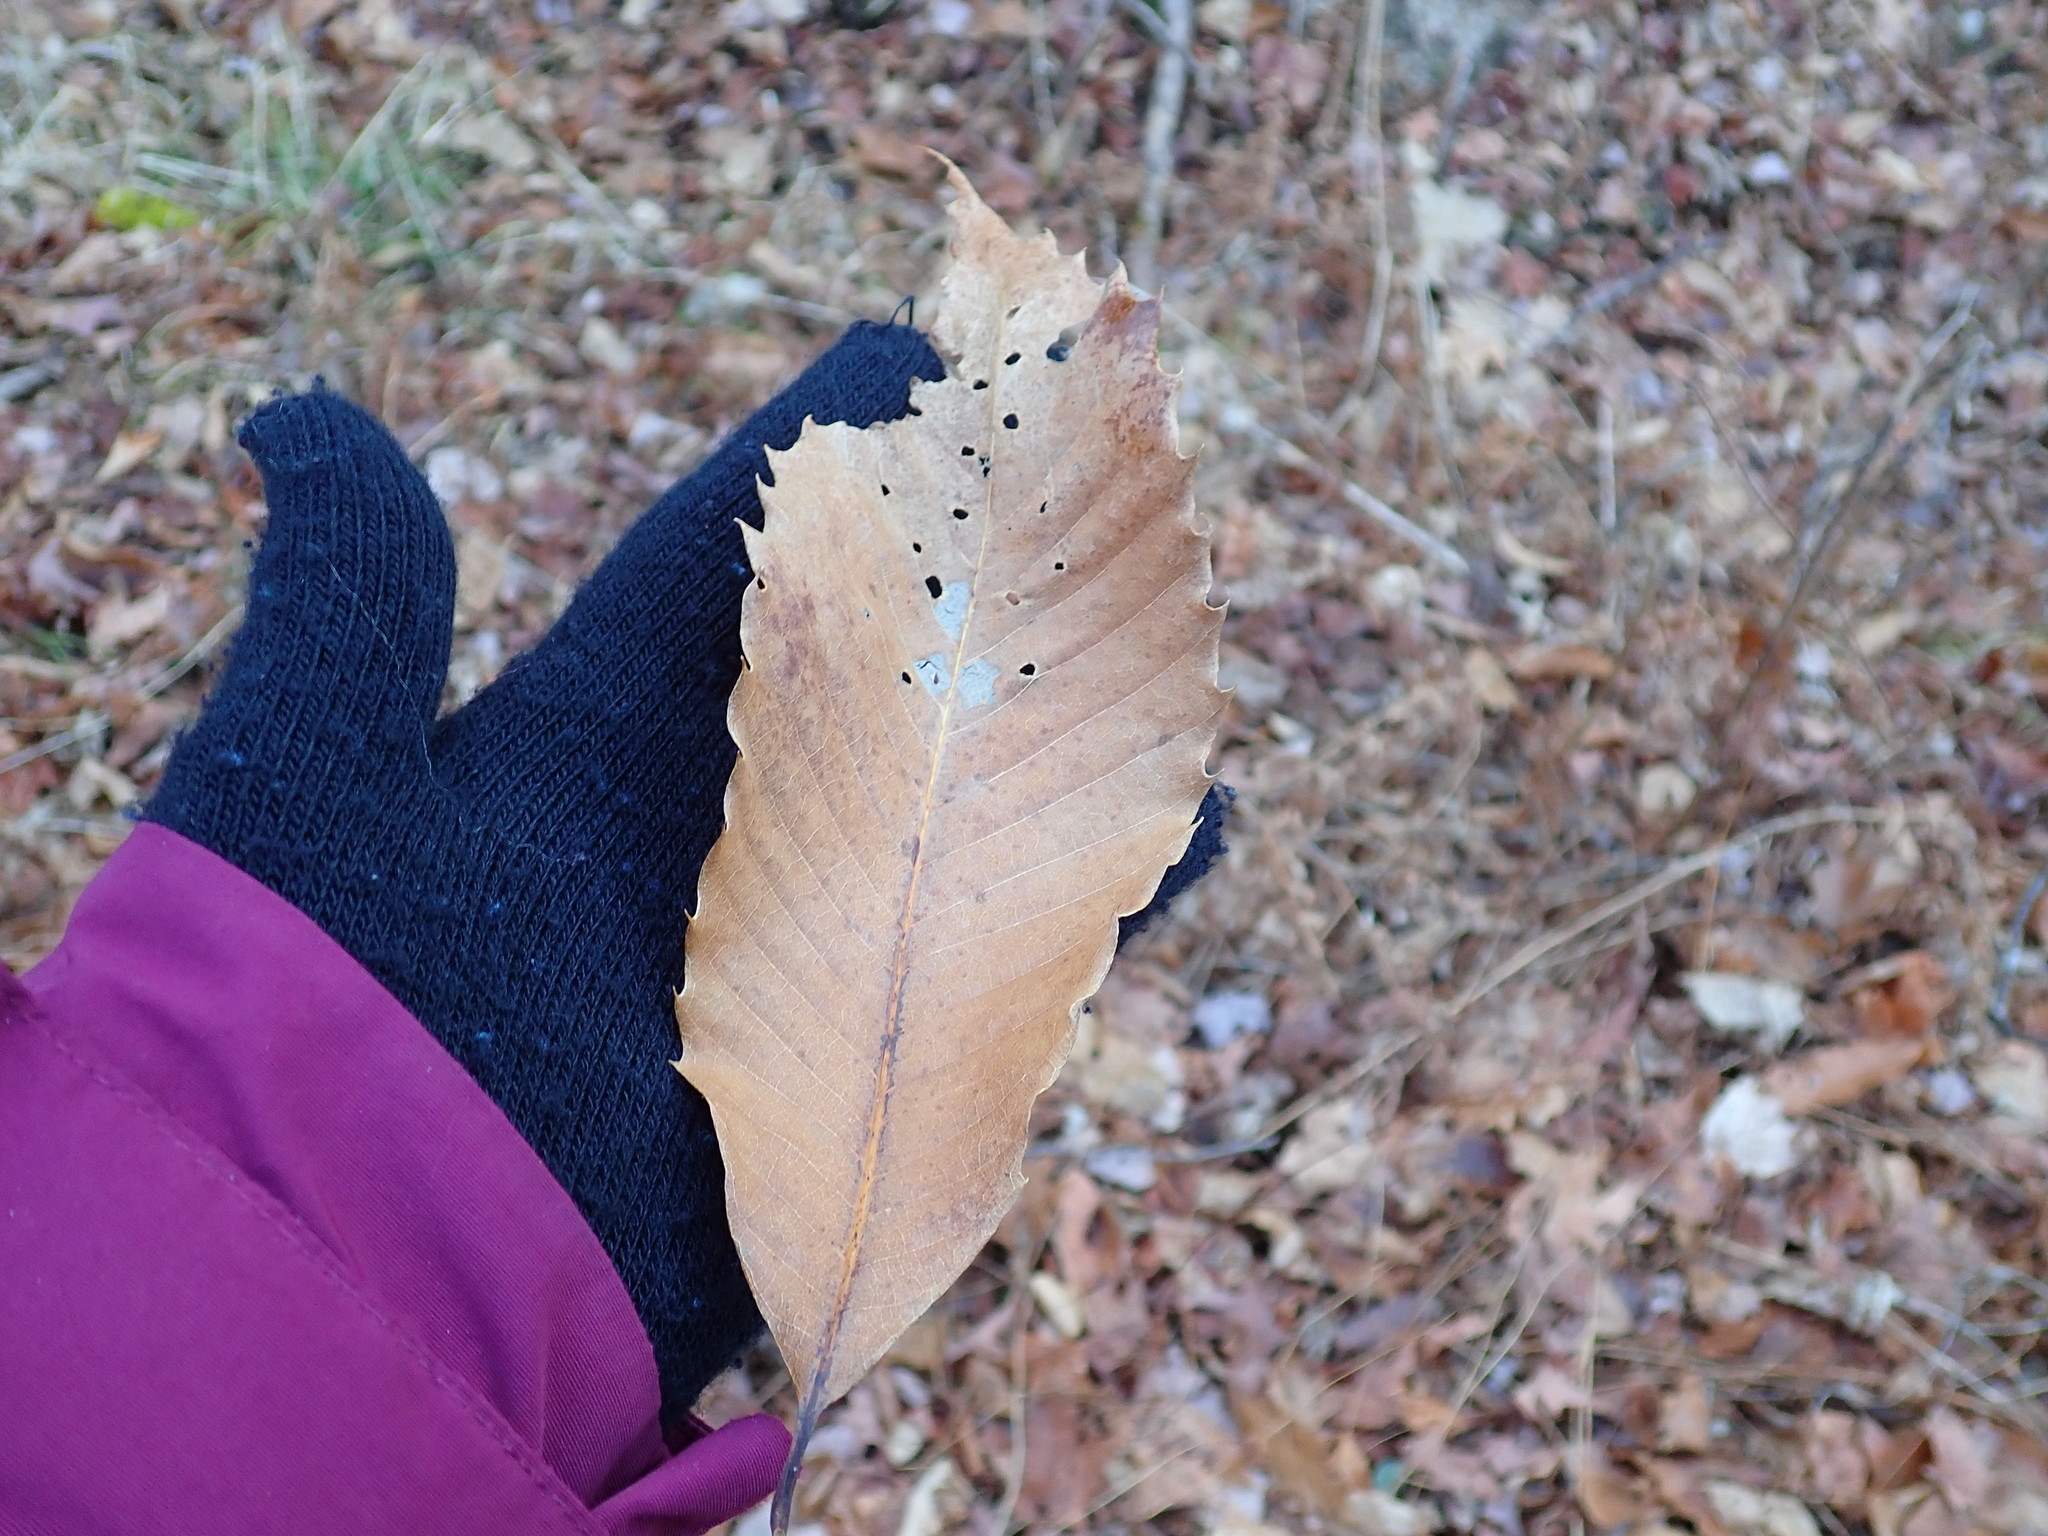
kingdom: Plantae
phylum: Tracheophyta
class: Magnoliopsida
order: Fagales
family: Fagaceae
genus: Castanea
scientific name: Castanea dentata
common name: American chestnut
